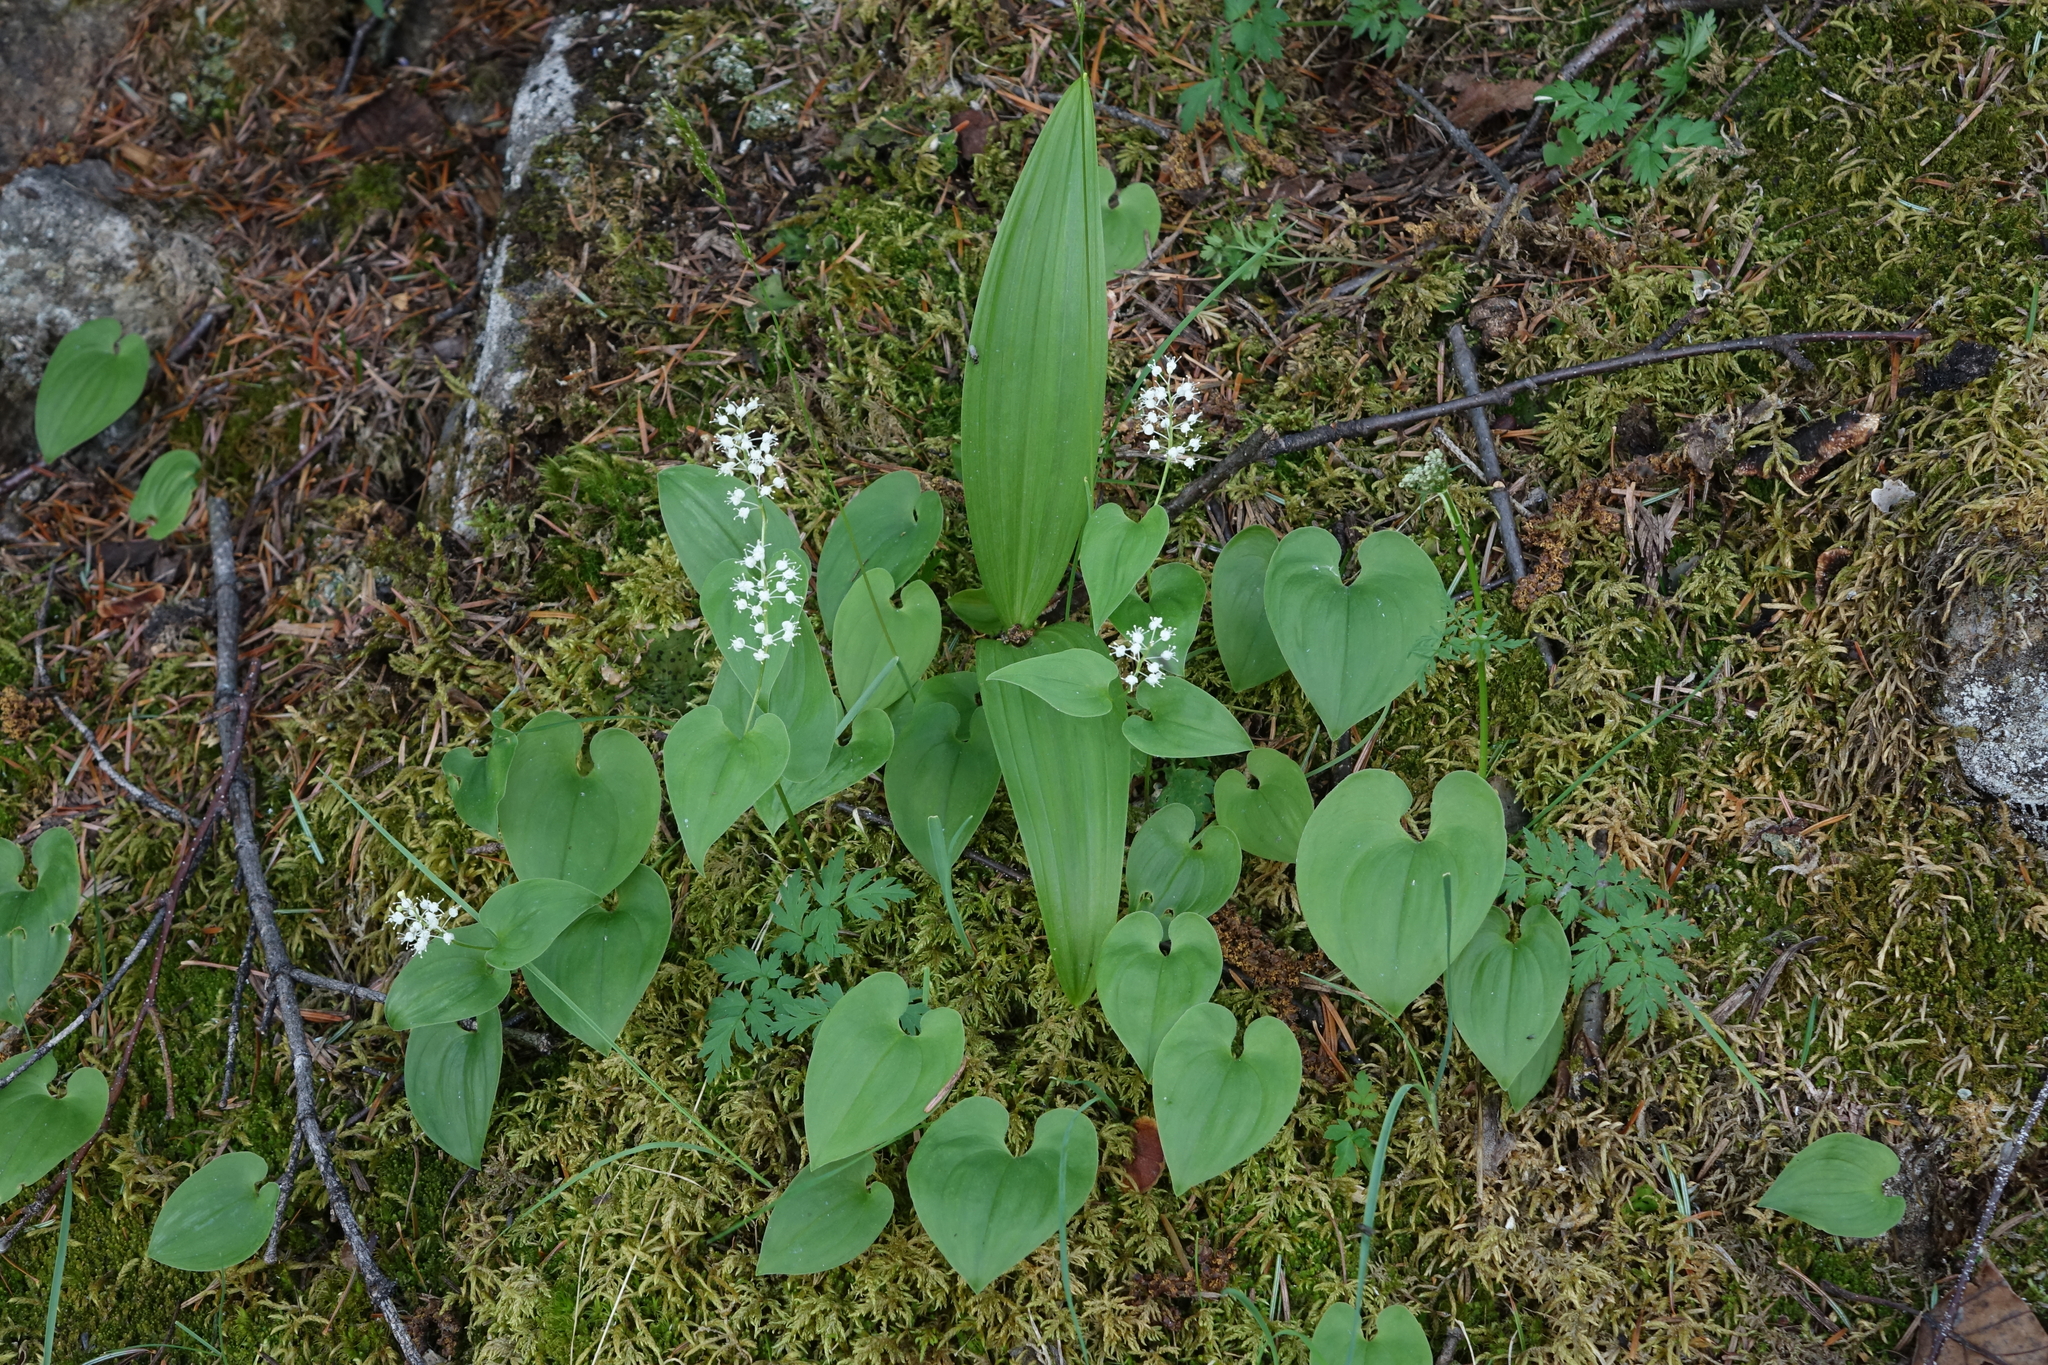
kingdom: Plantae
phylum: Tracheophyta
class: Liliopsida
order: Asparagales
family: Asparagaceae
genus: Maianthemum
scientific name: Maianthemum bifolium
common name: May lily
